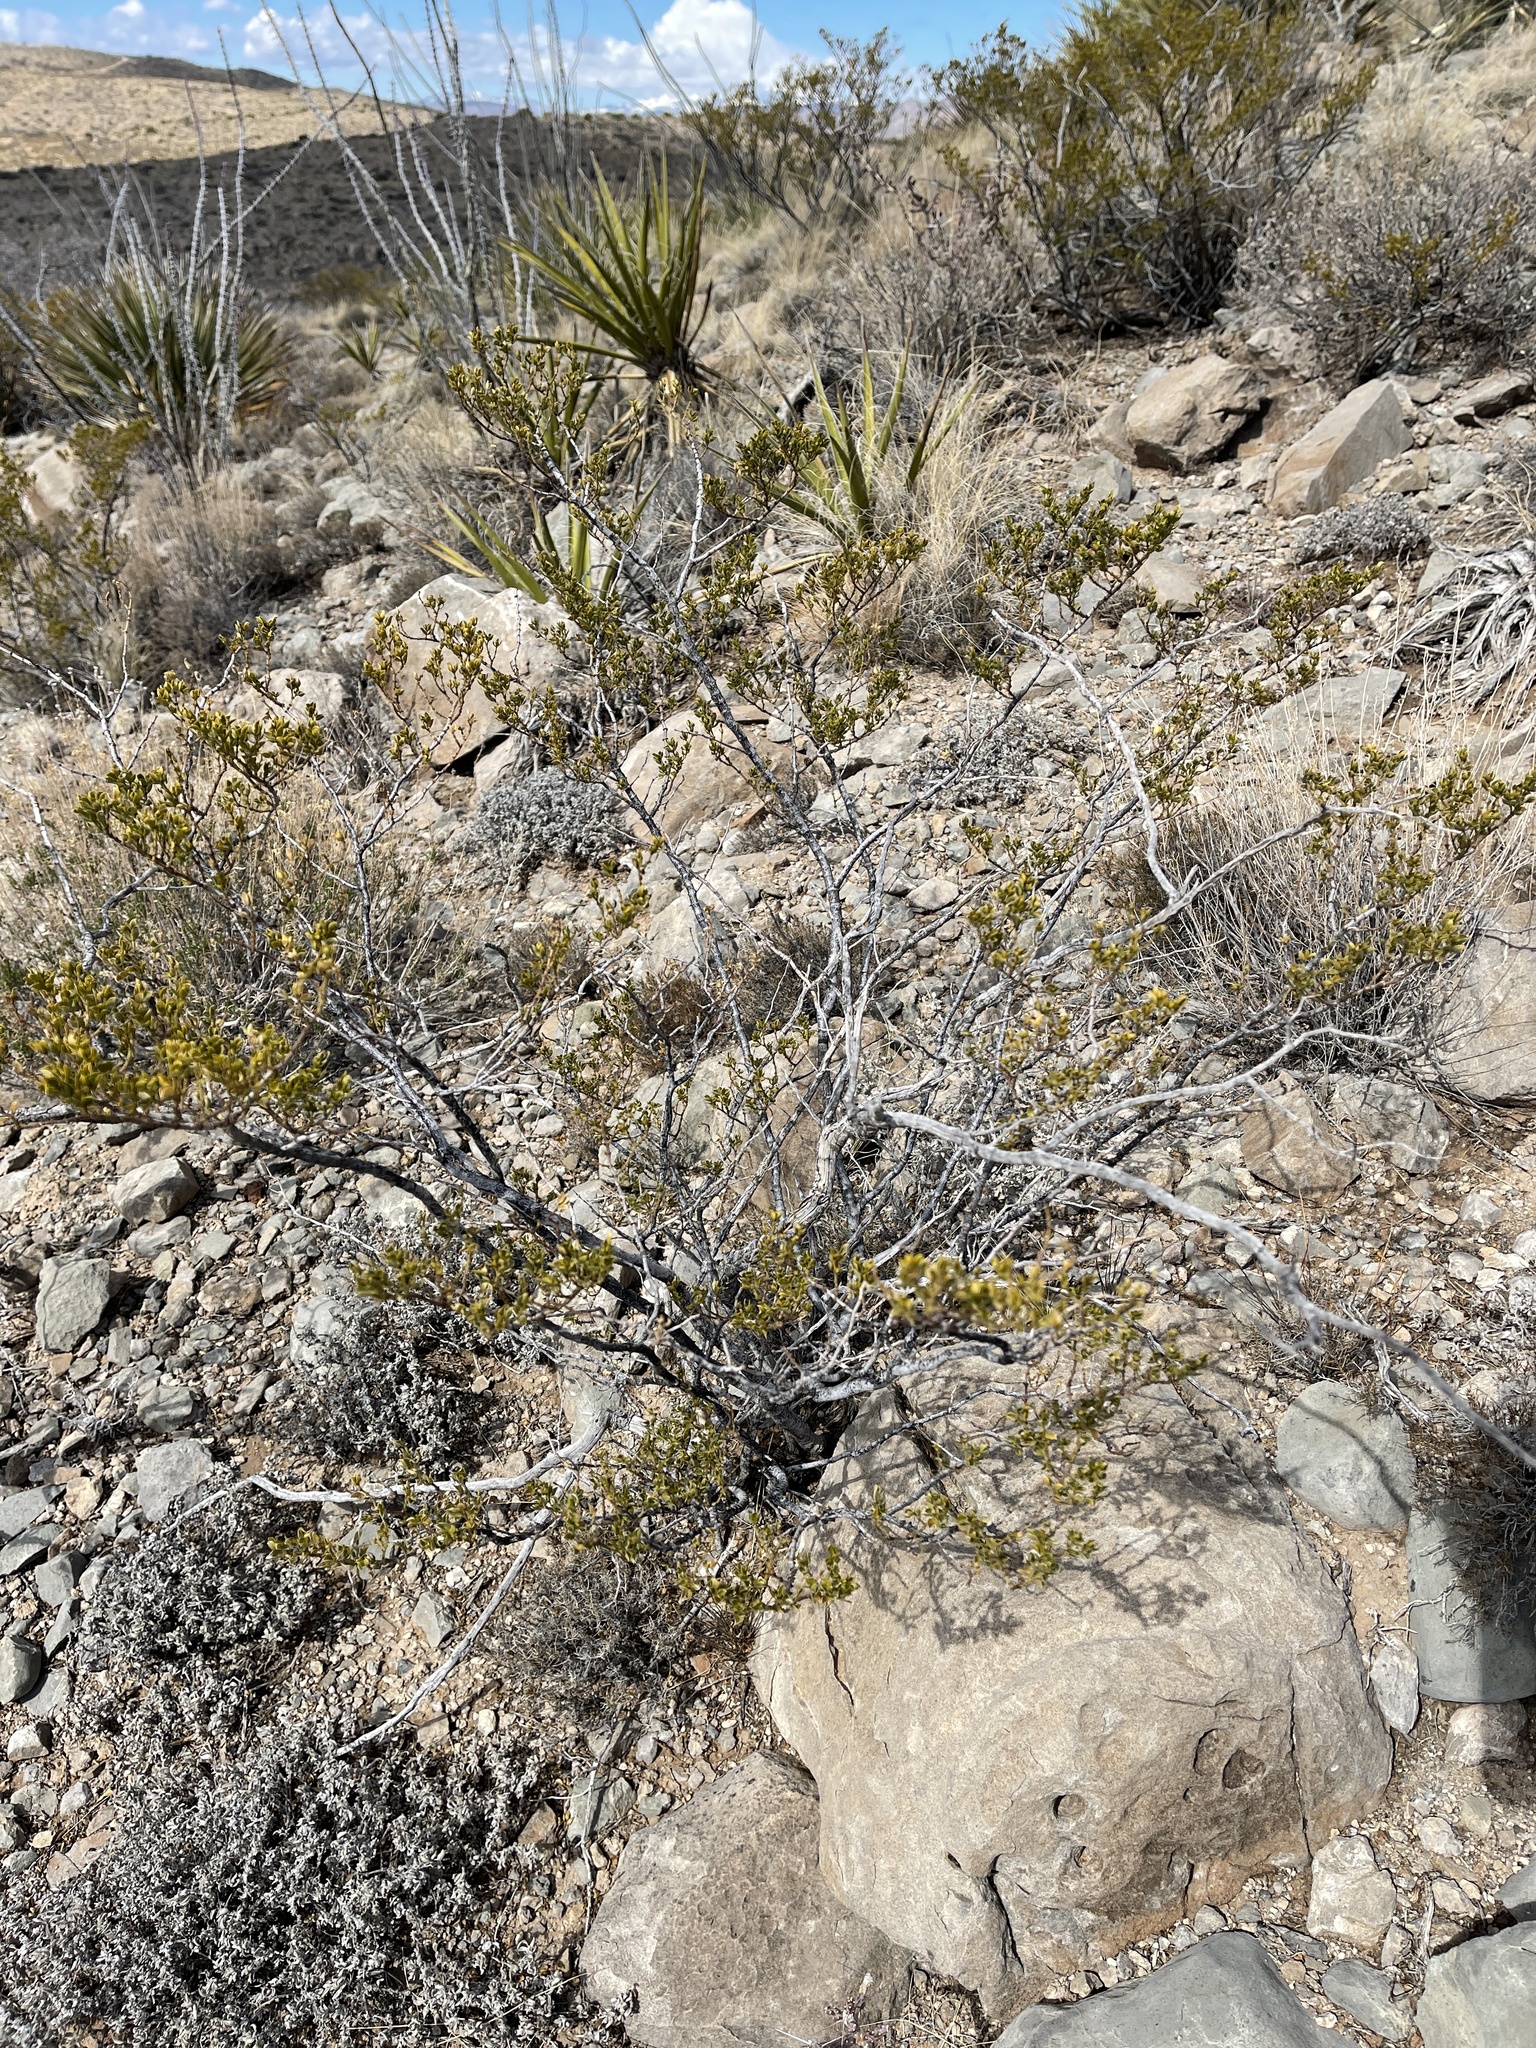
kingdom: Plantae
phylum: Tracheophyta
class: Magnoliopsida
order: Zygophyllales
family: Zygophyllaceae
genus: Larrea
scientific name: Larrea tridentata
